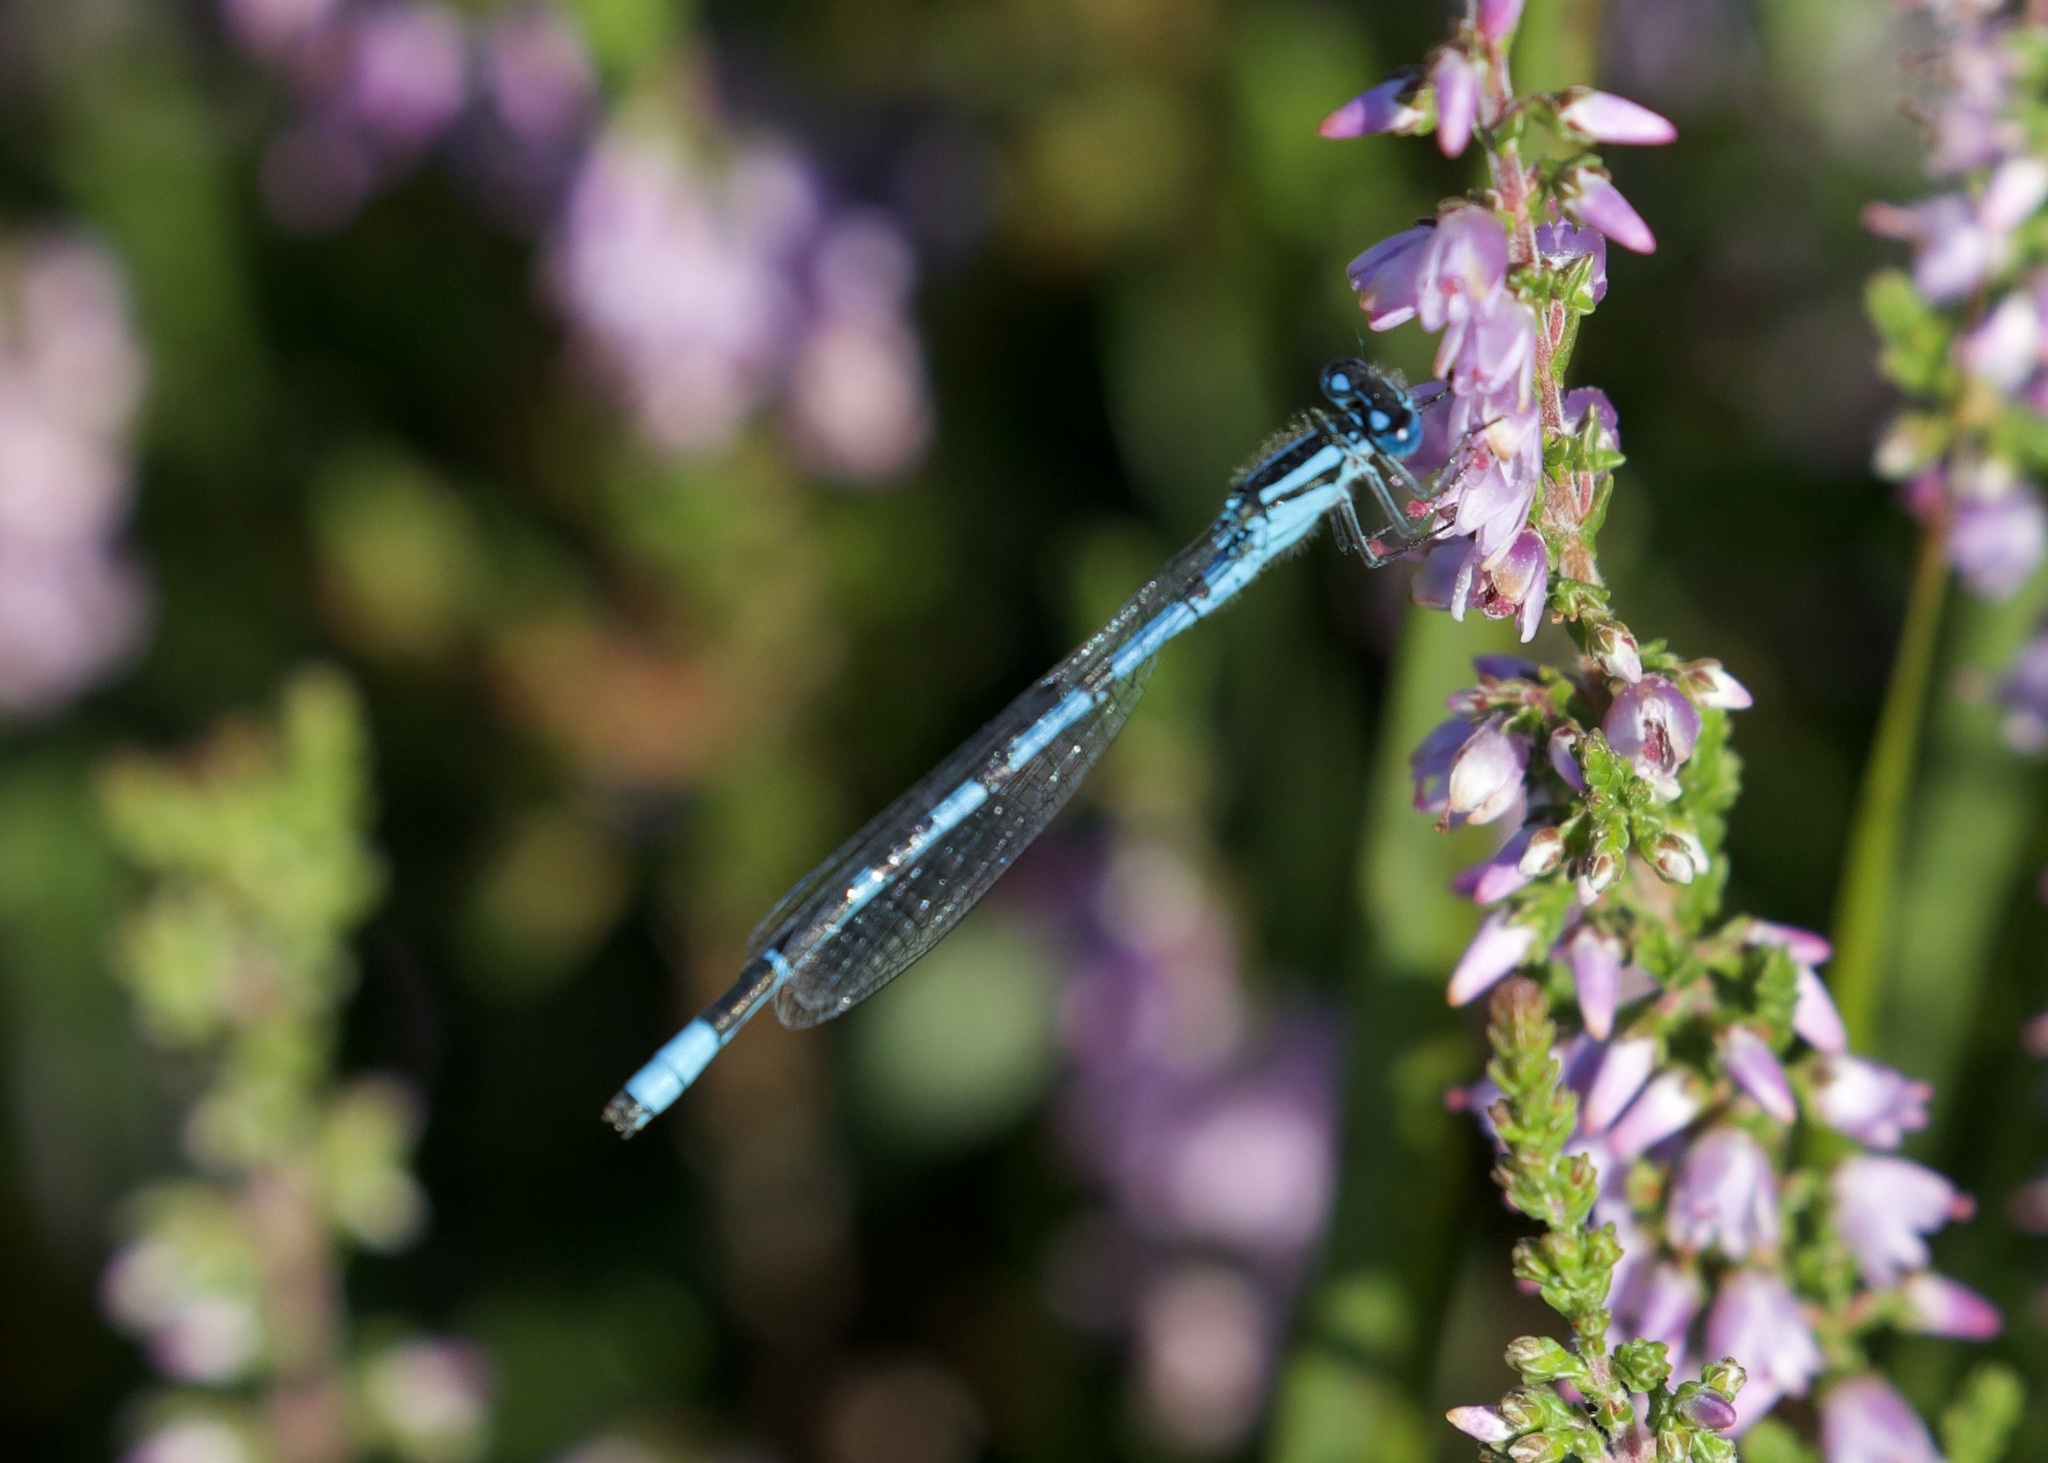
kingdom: Animalia
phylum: Arthropoda
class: Insecta
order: Odonata
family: Coenagrionidae
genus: Enallagma
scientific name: Enallagma cyathigerum
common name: Common blue damselfly
